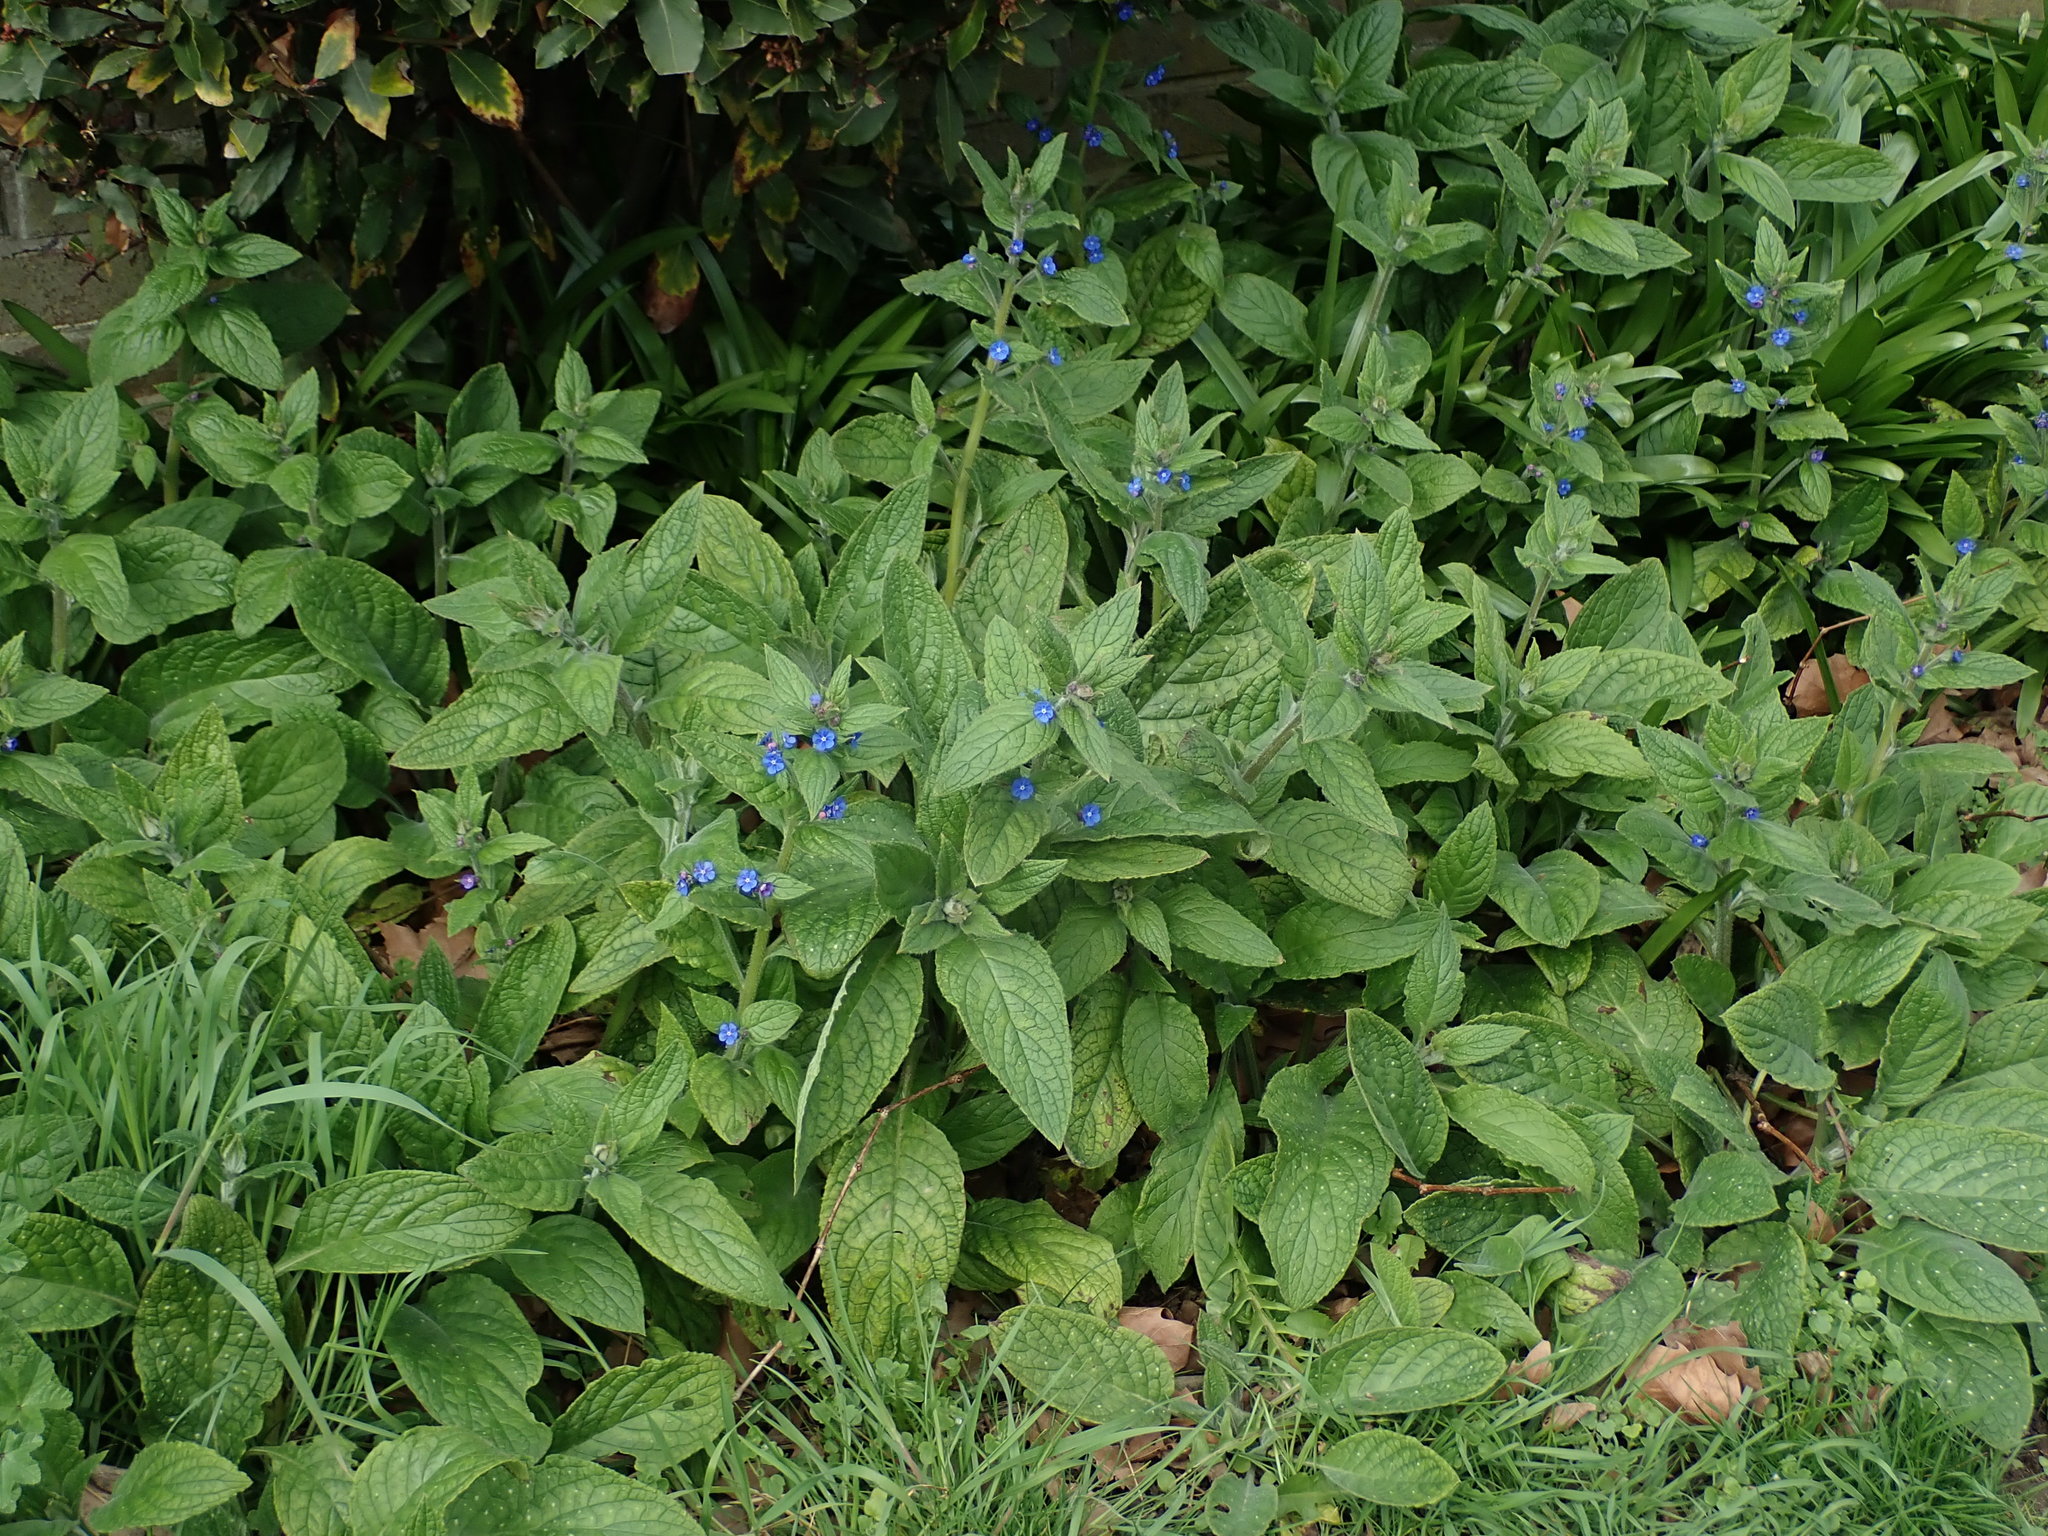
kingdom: Plantae
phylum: Tracheophyta
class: Magnoliopsida
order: Boraginales
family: Boraginaceae
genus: Pentaglottis
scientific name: Pentaglottis sempervirens
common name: Green alkanet
